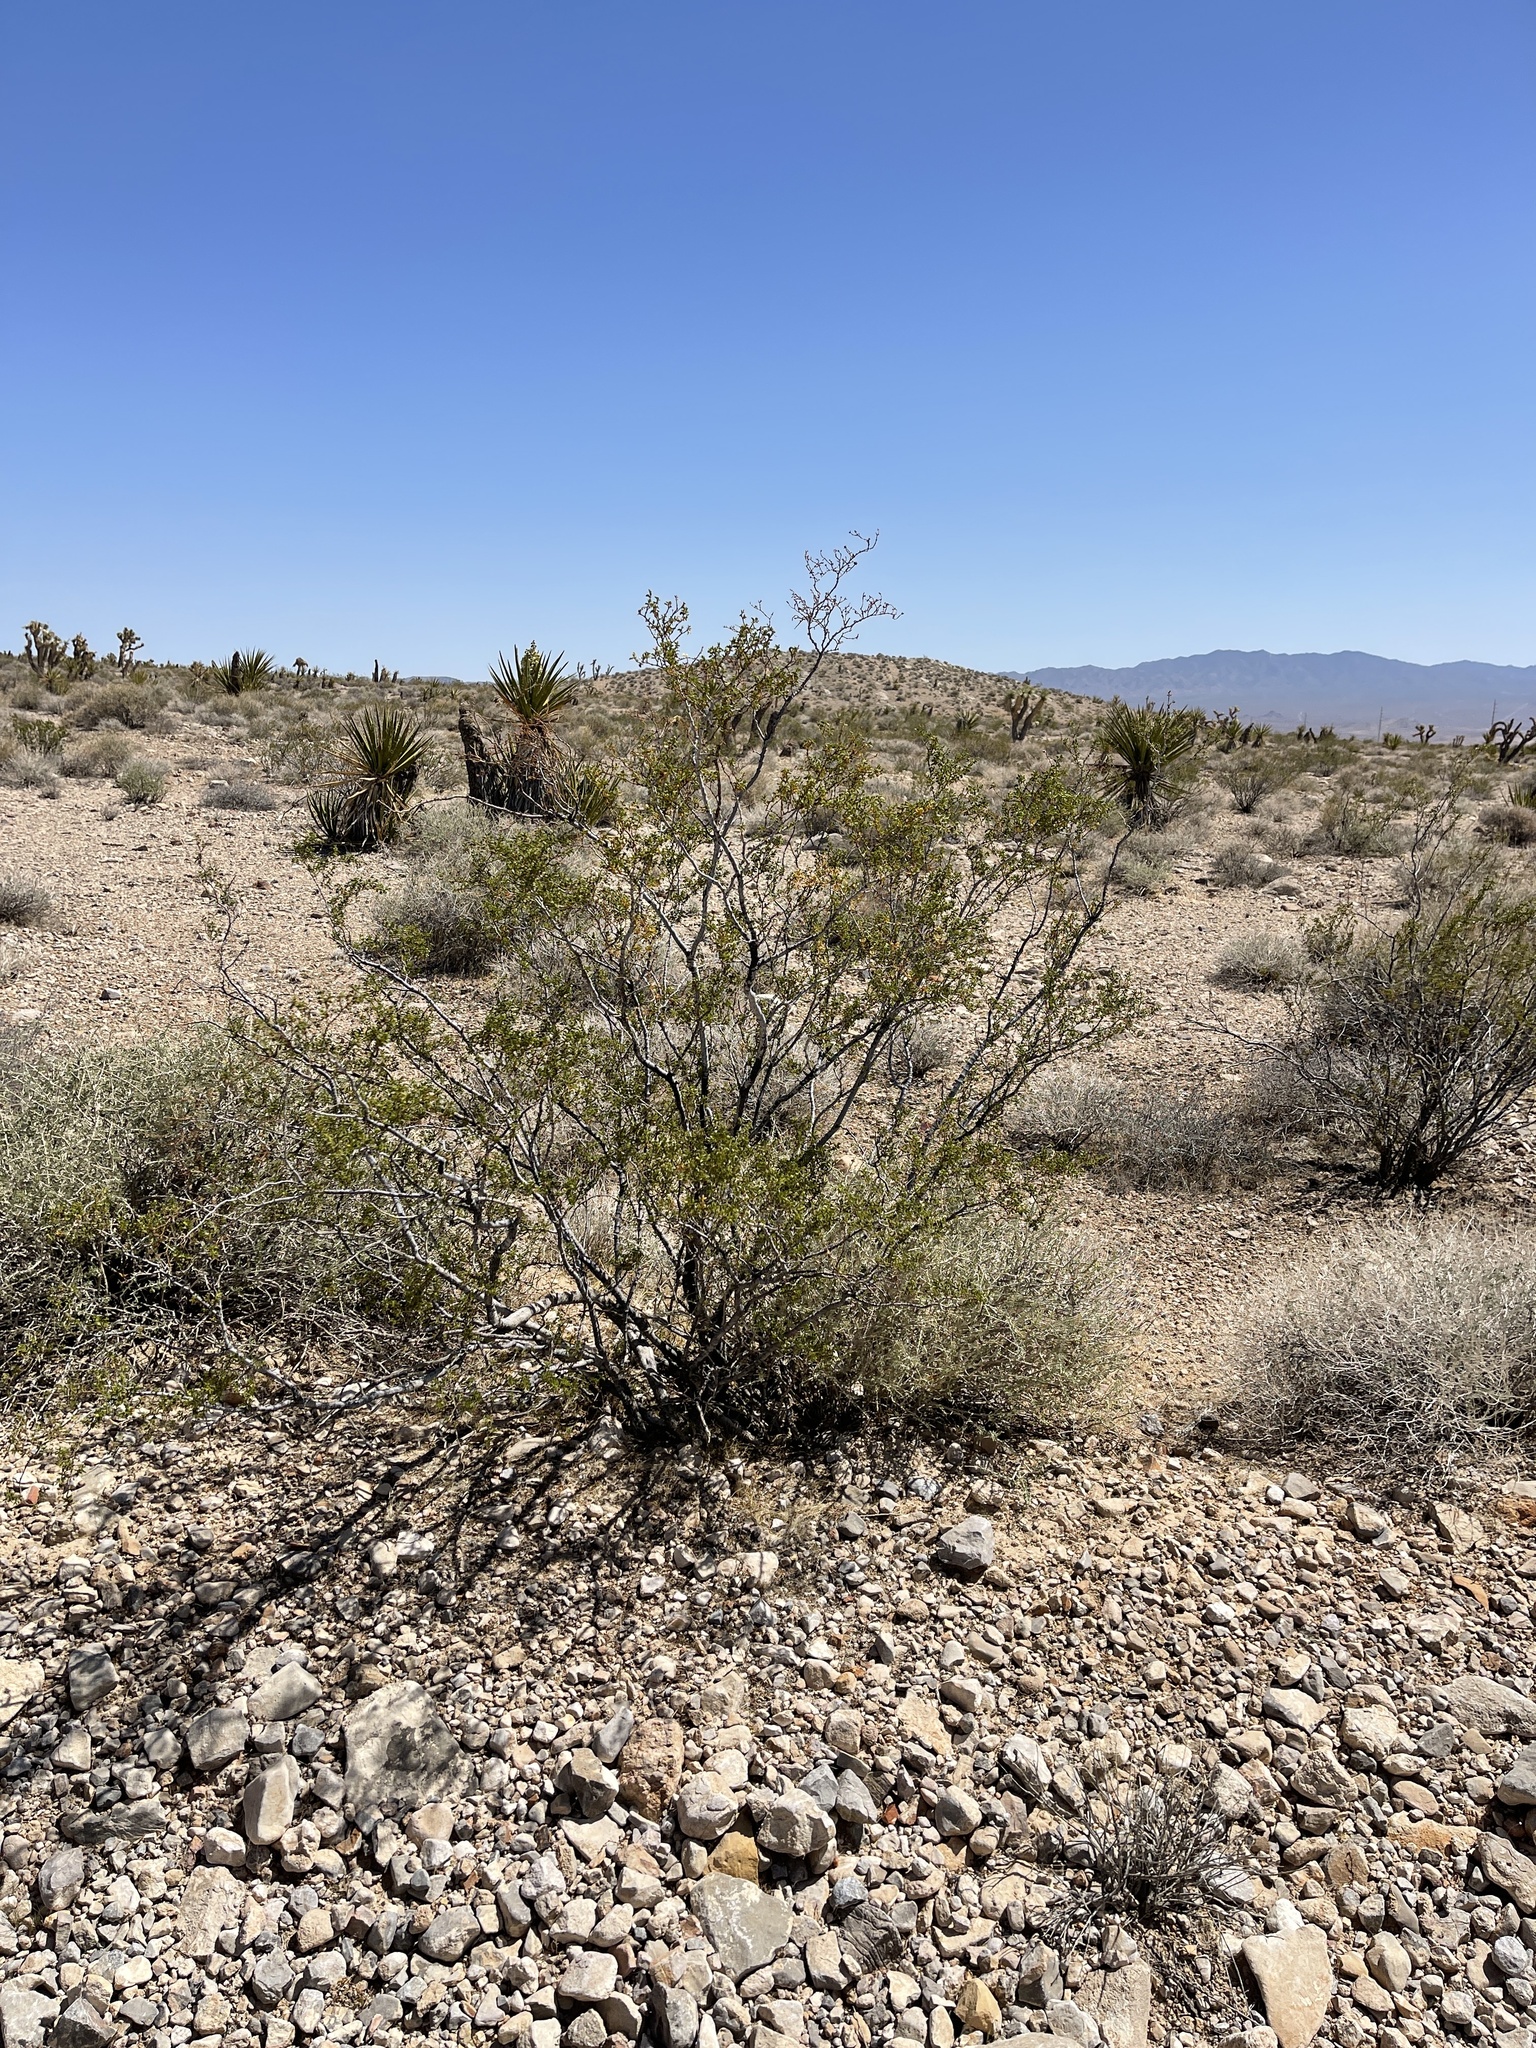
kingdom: Plantae
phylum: Tracheophyta
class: Magnoliopsida
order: Zygophyllales
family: Zygophyllaceae
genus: Larrea
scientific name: Larrea tridentata
